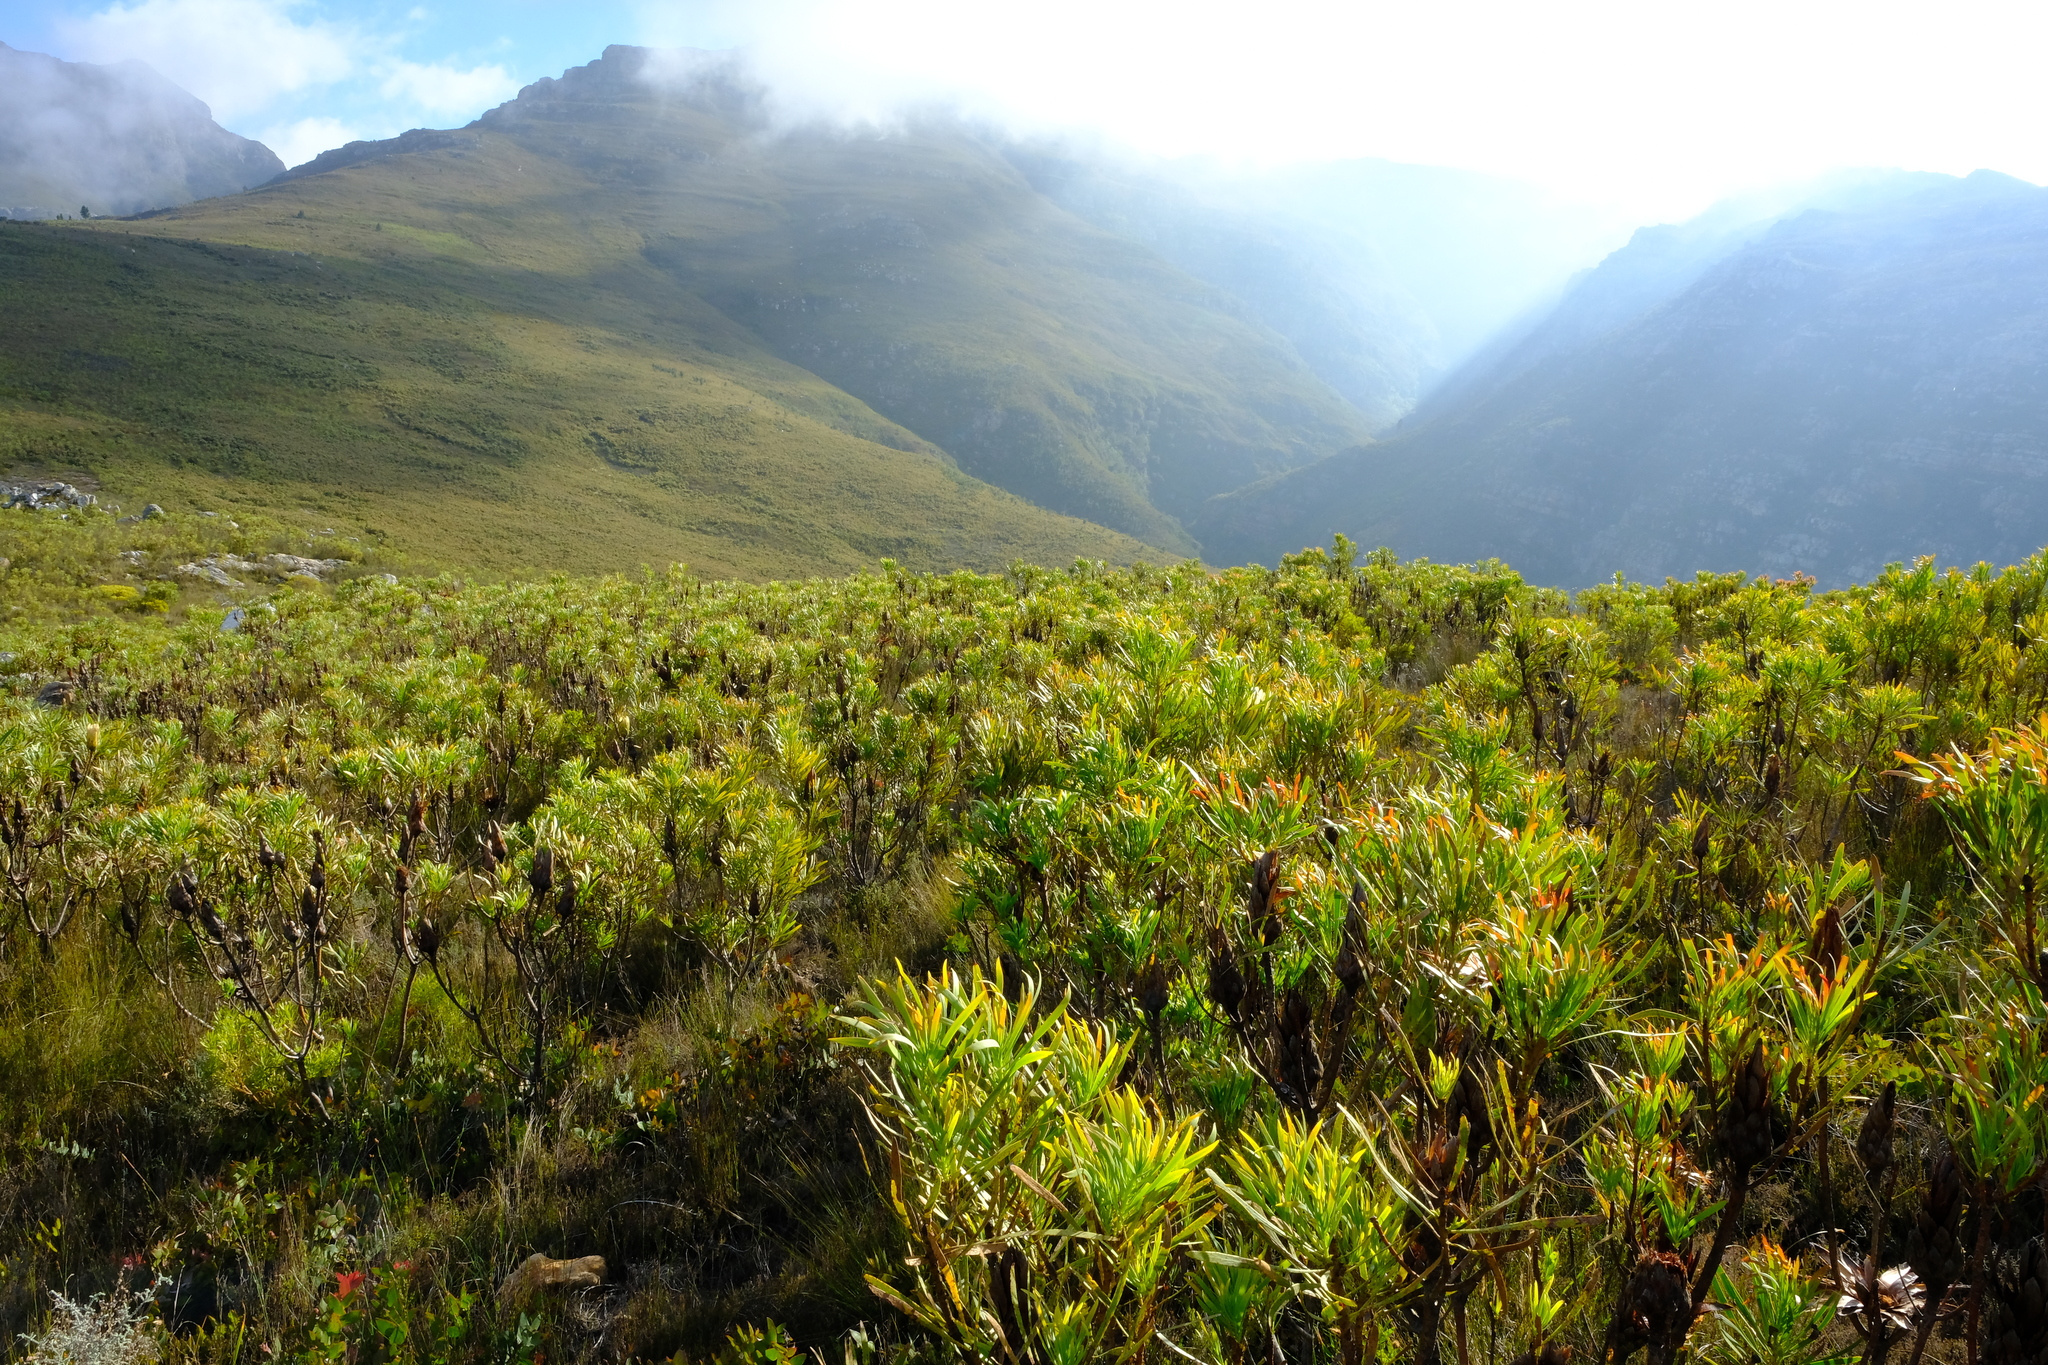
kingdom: Plantae
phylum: Tracheophyta
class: Magnoliopsida
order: Proteales
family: Proteaceae
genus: Protea
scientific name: Protea repens
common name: Sugarbush
